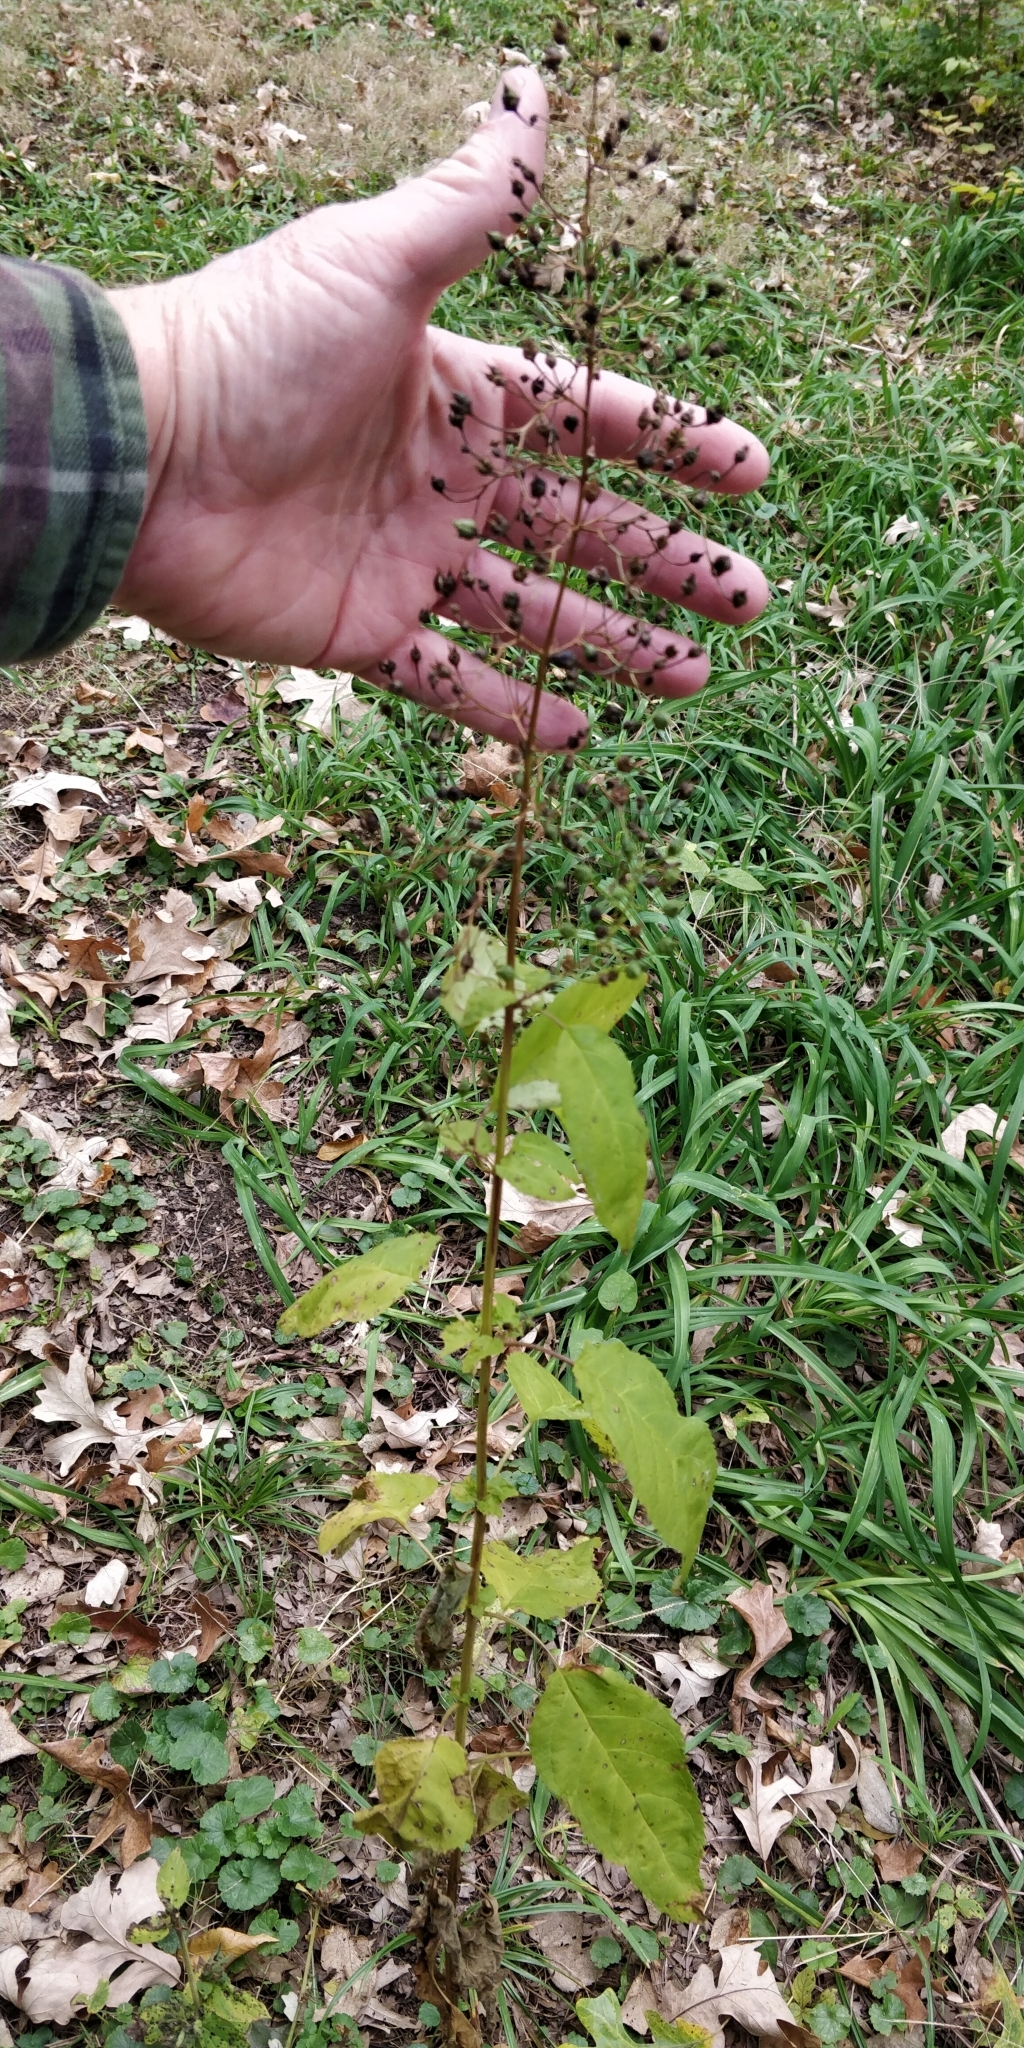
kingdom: Plantae
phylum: Tracheophyta
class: Magnoliopsida
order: Lamiales
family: Scrophulariaceae
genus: Scrophularia
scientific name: Scrophularia marilandica
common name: Eastern figwort
